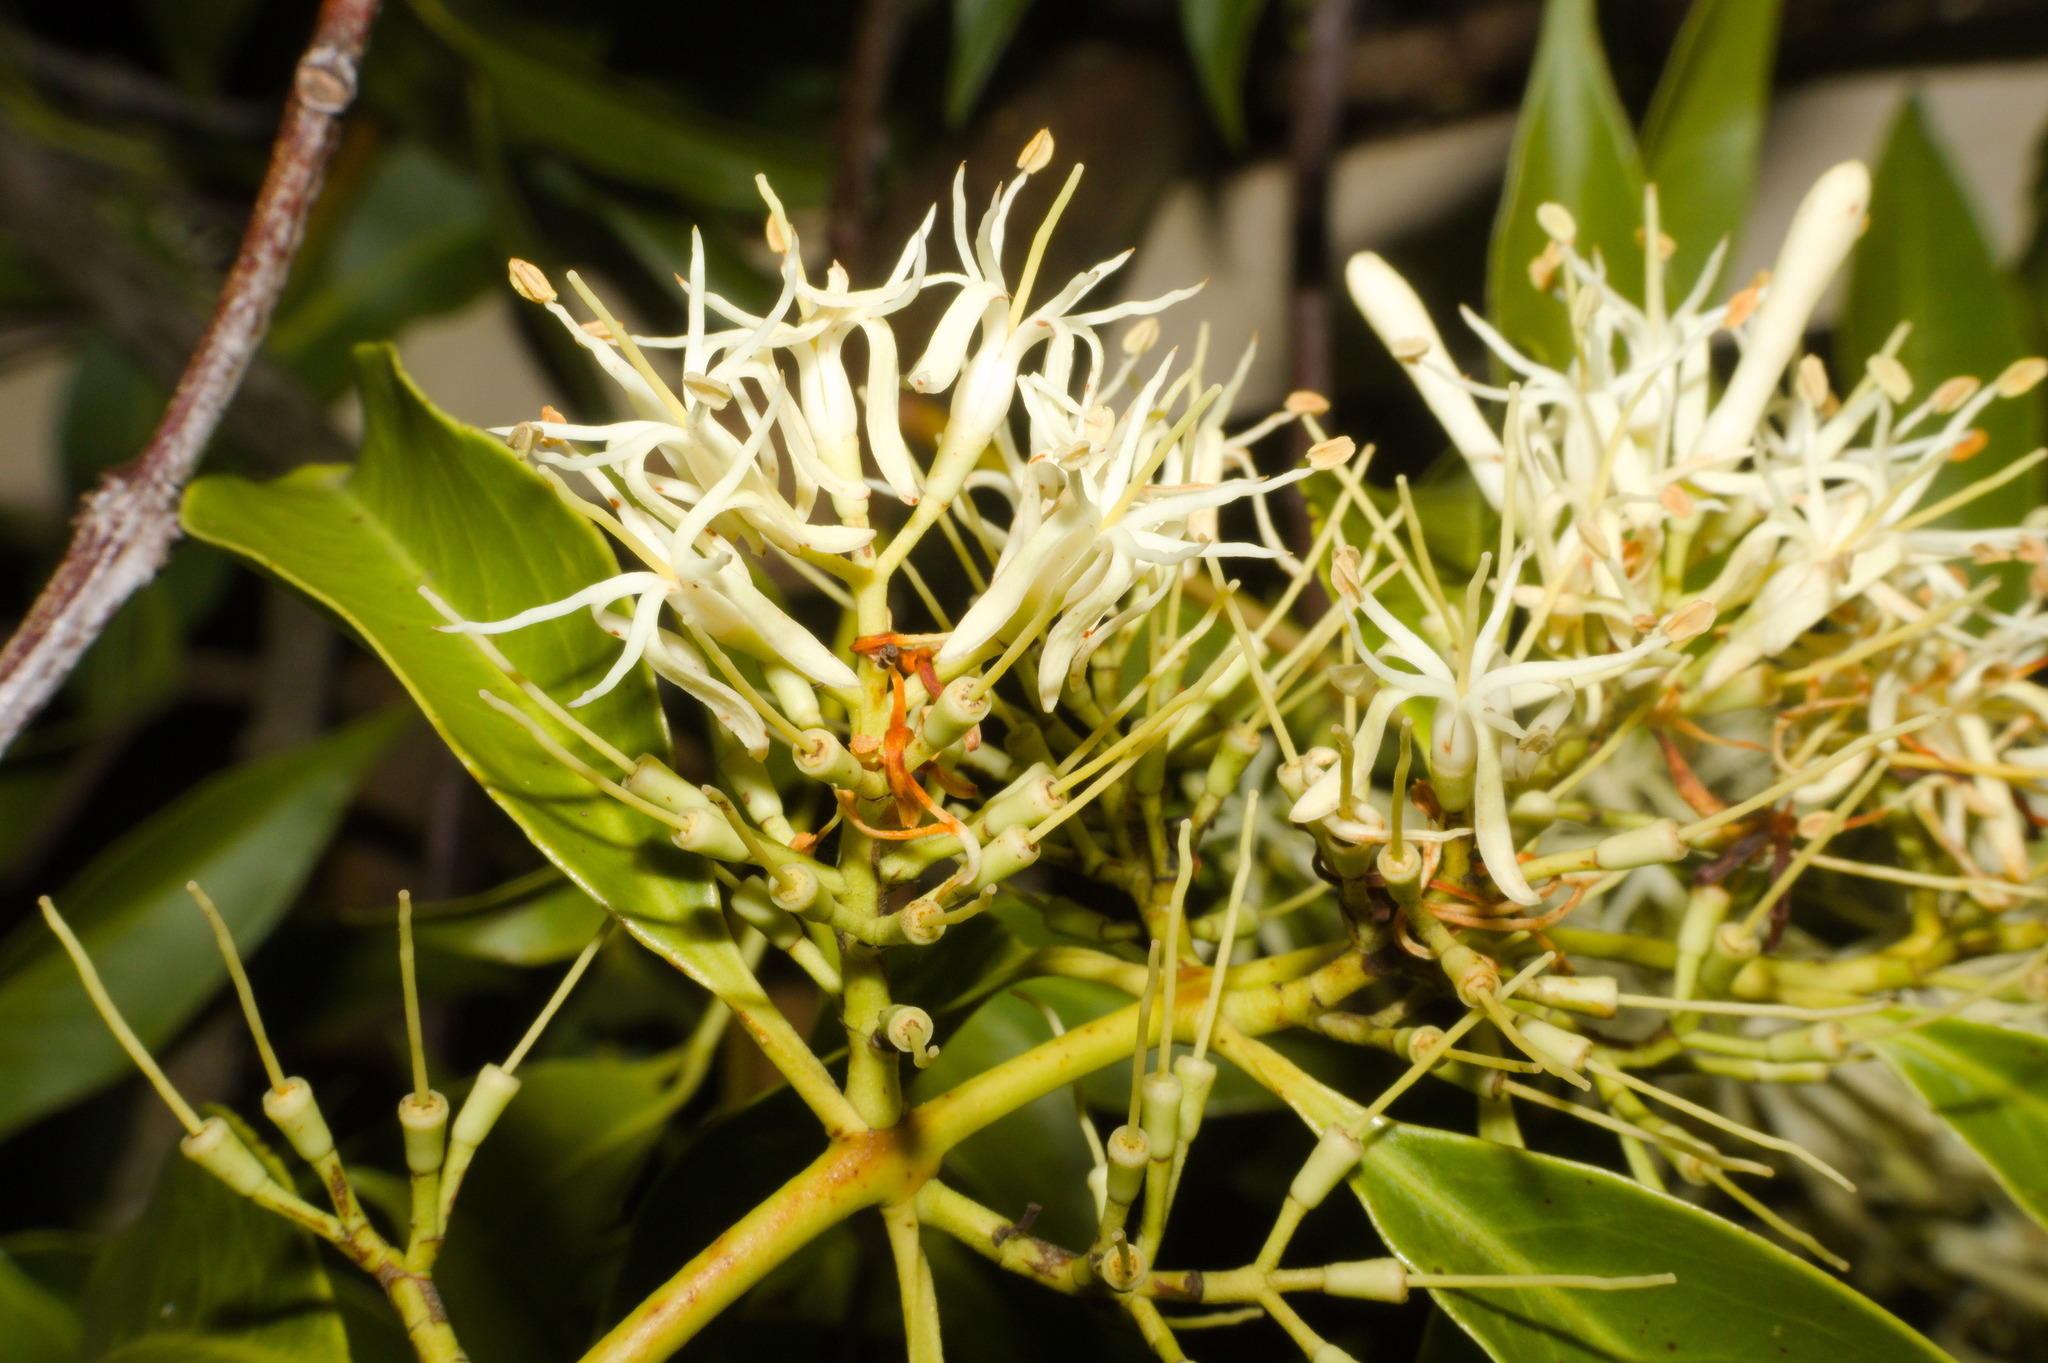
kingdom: Plantae
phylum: Tracheophyta
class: Magnoliopsida
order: Santalales
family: Loranthaceae
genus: Tripodanthus
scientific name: Tripodanthus acutifolius
